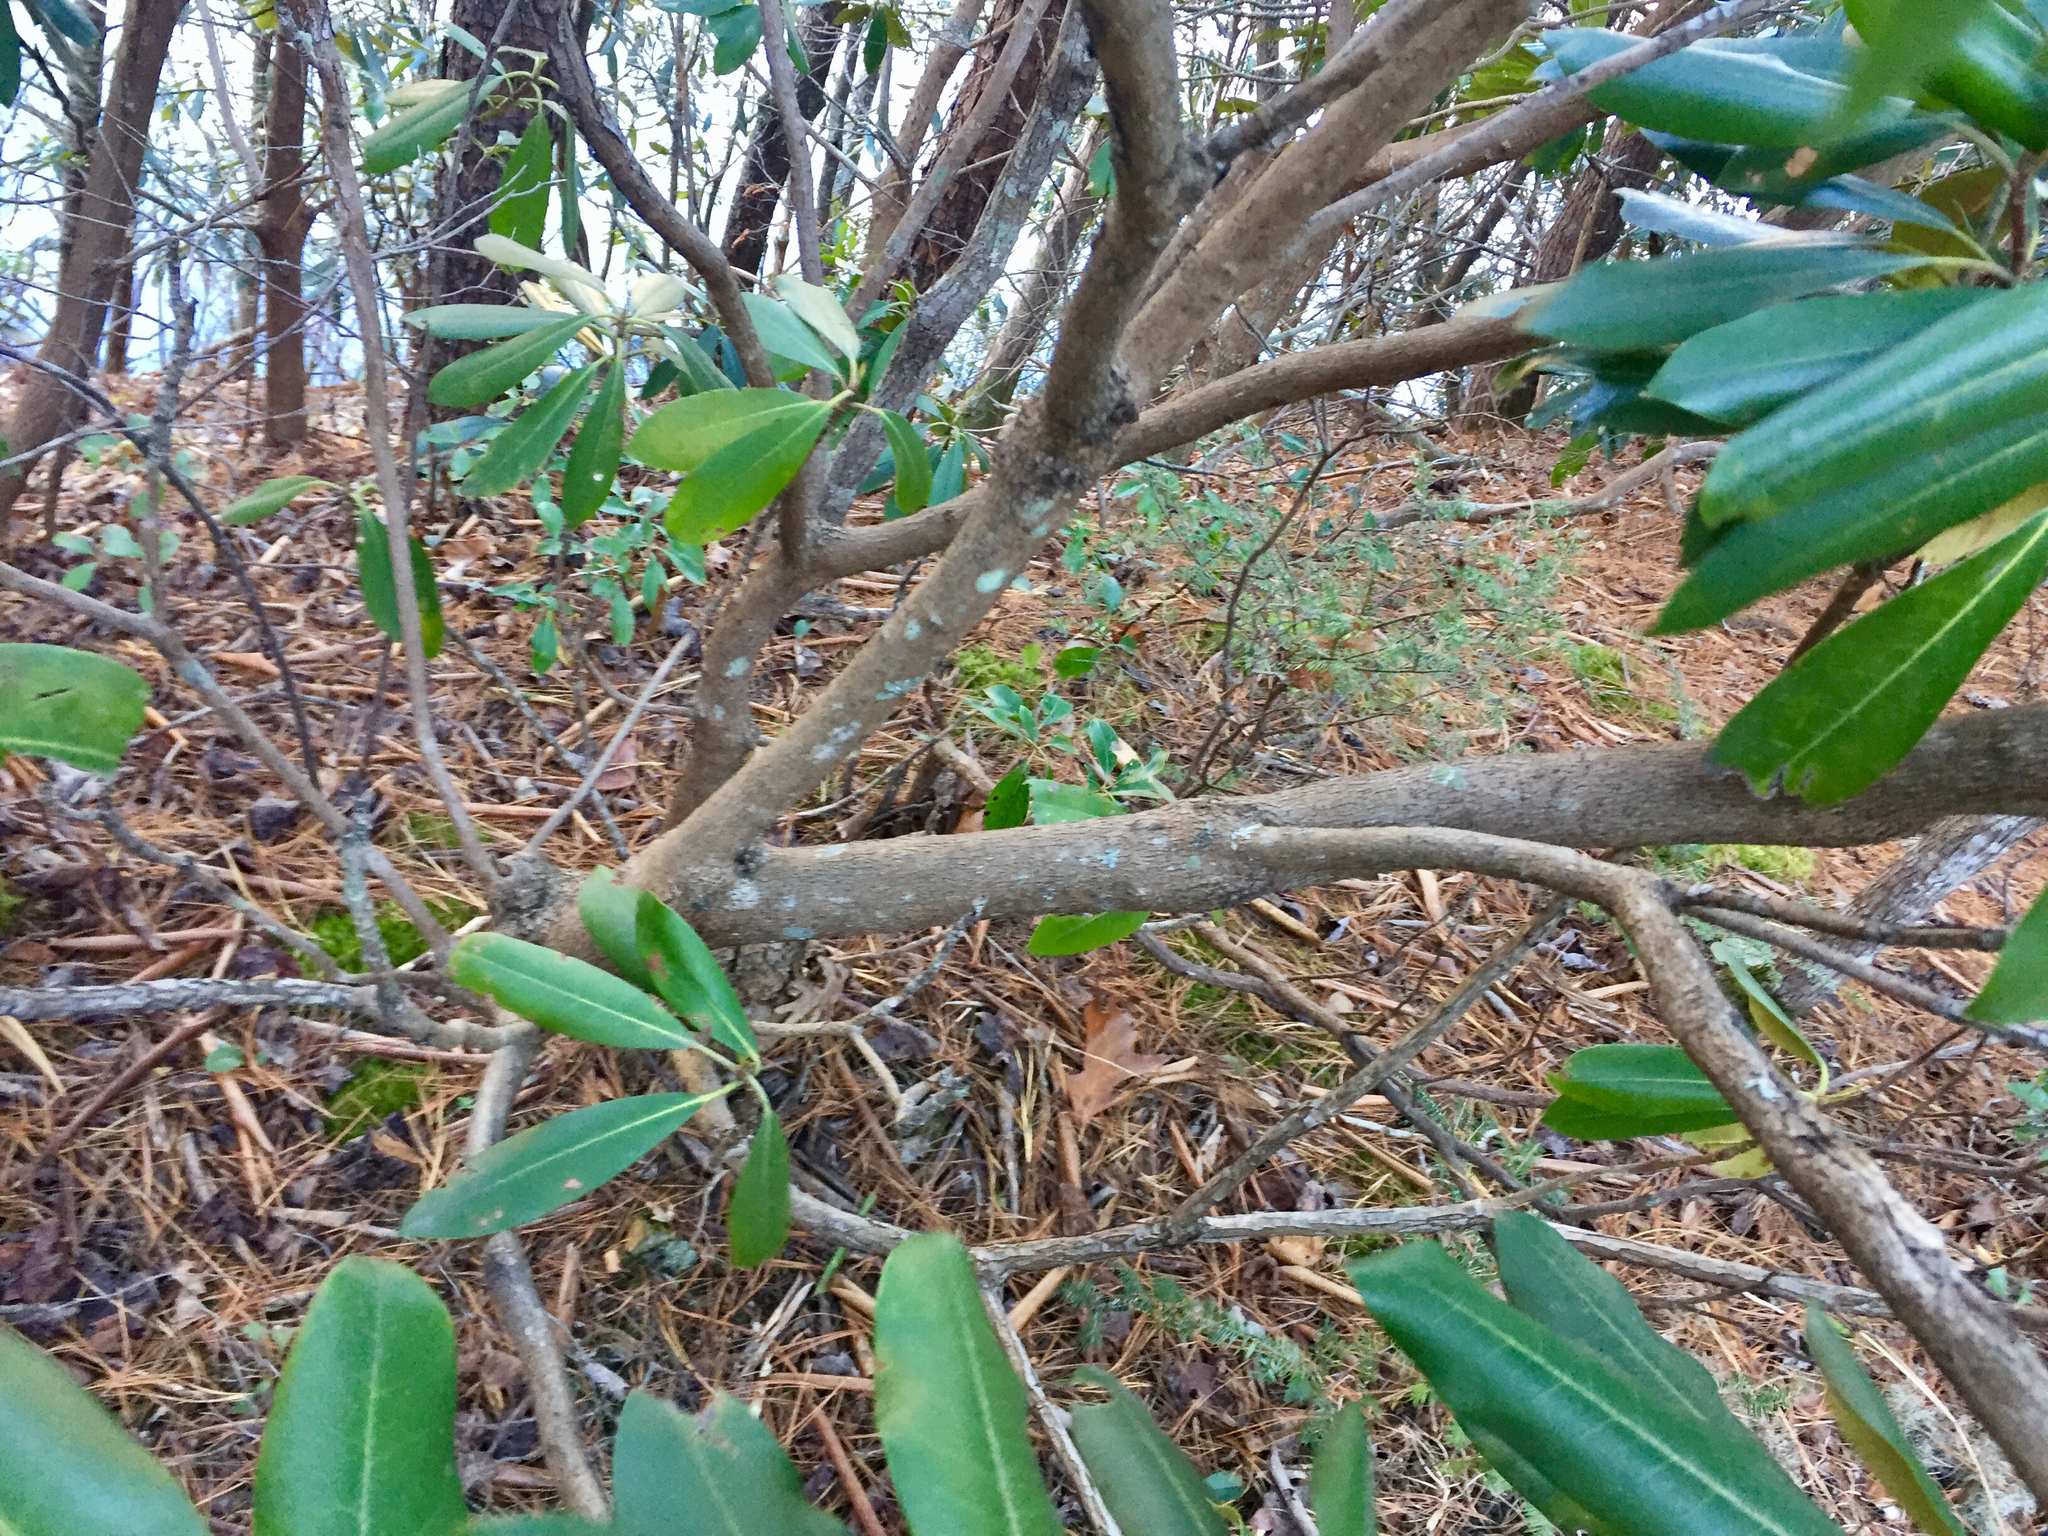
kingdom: Plantae
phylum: Tracheophyta
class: Magnoliopsida
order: Ericales
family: Ericaceae
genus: Rhododendron
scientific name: Rhododendron maximum
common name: Great rhododendron
